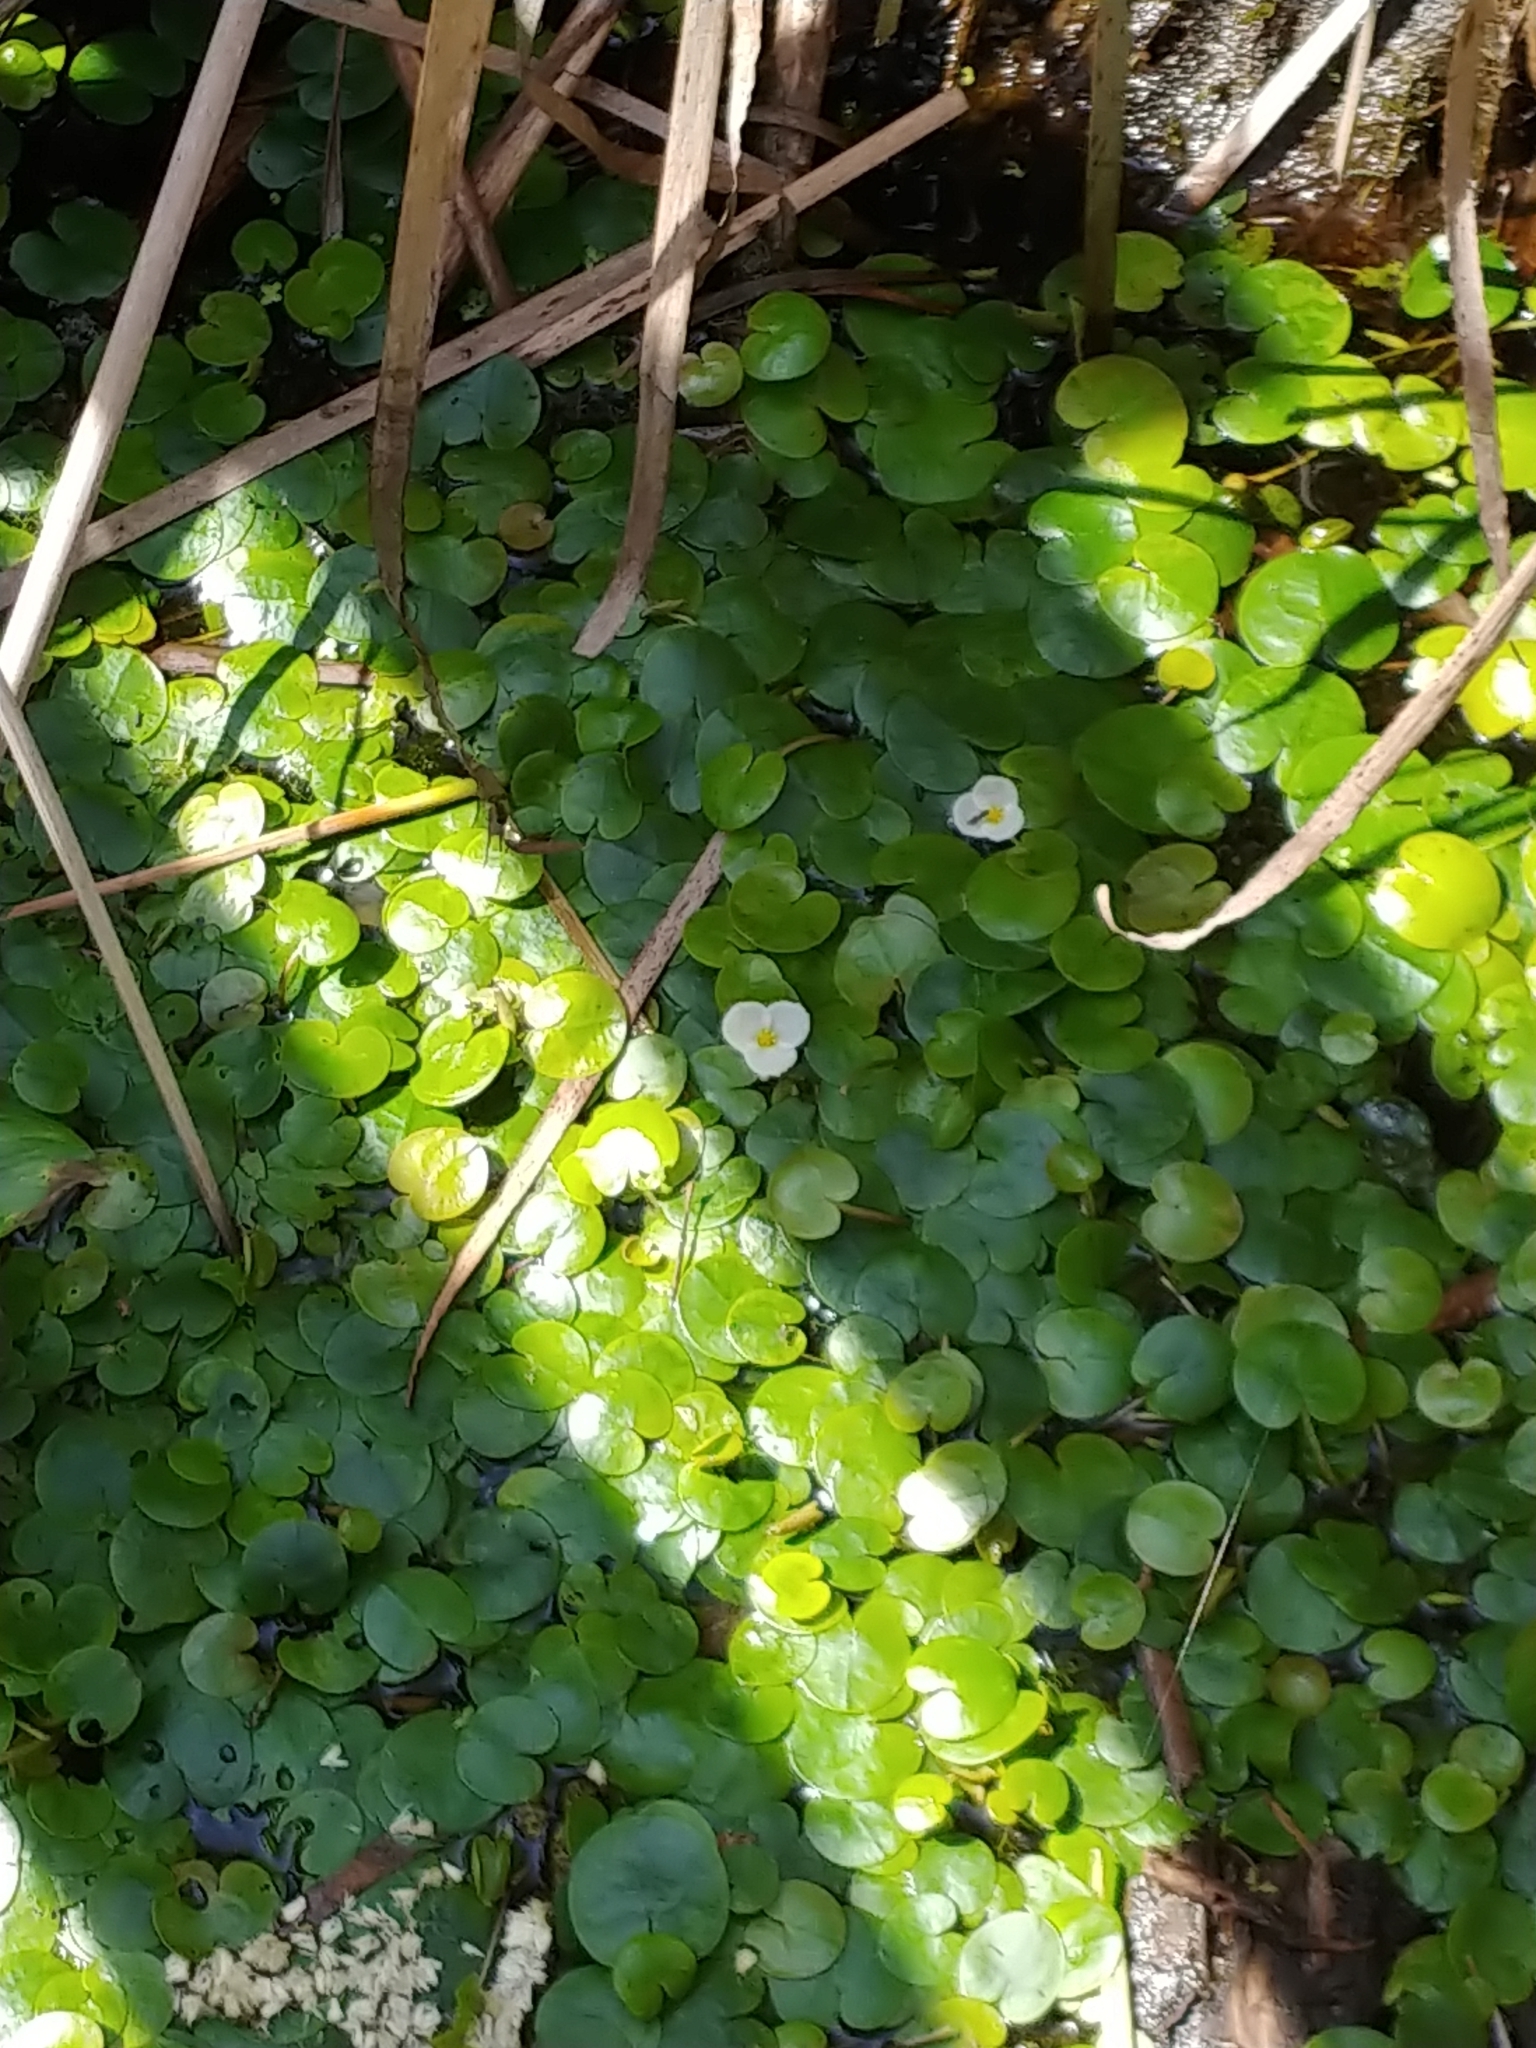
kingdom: Plantae
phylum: Tracheophyta
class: Liliopsida
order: Alismatales
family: Hydrocharitaceae
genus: Hydrocharis
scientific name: Hydrocharis morsus-ranae
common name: Frogbit
